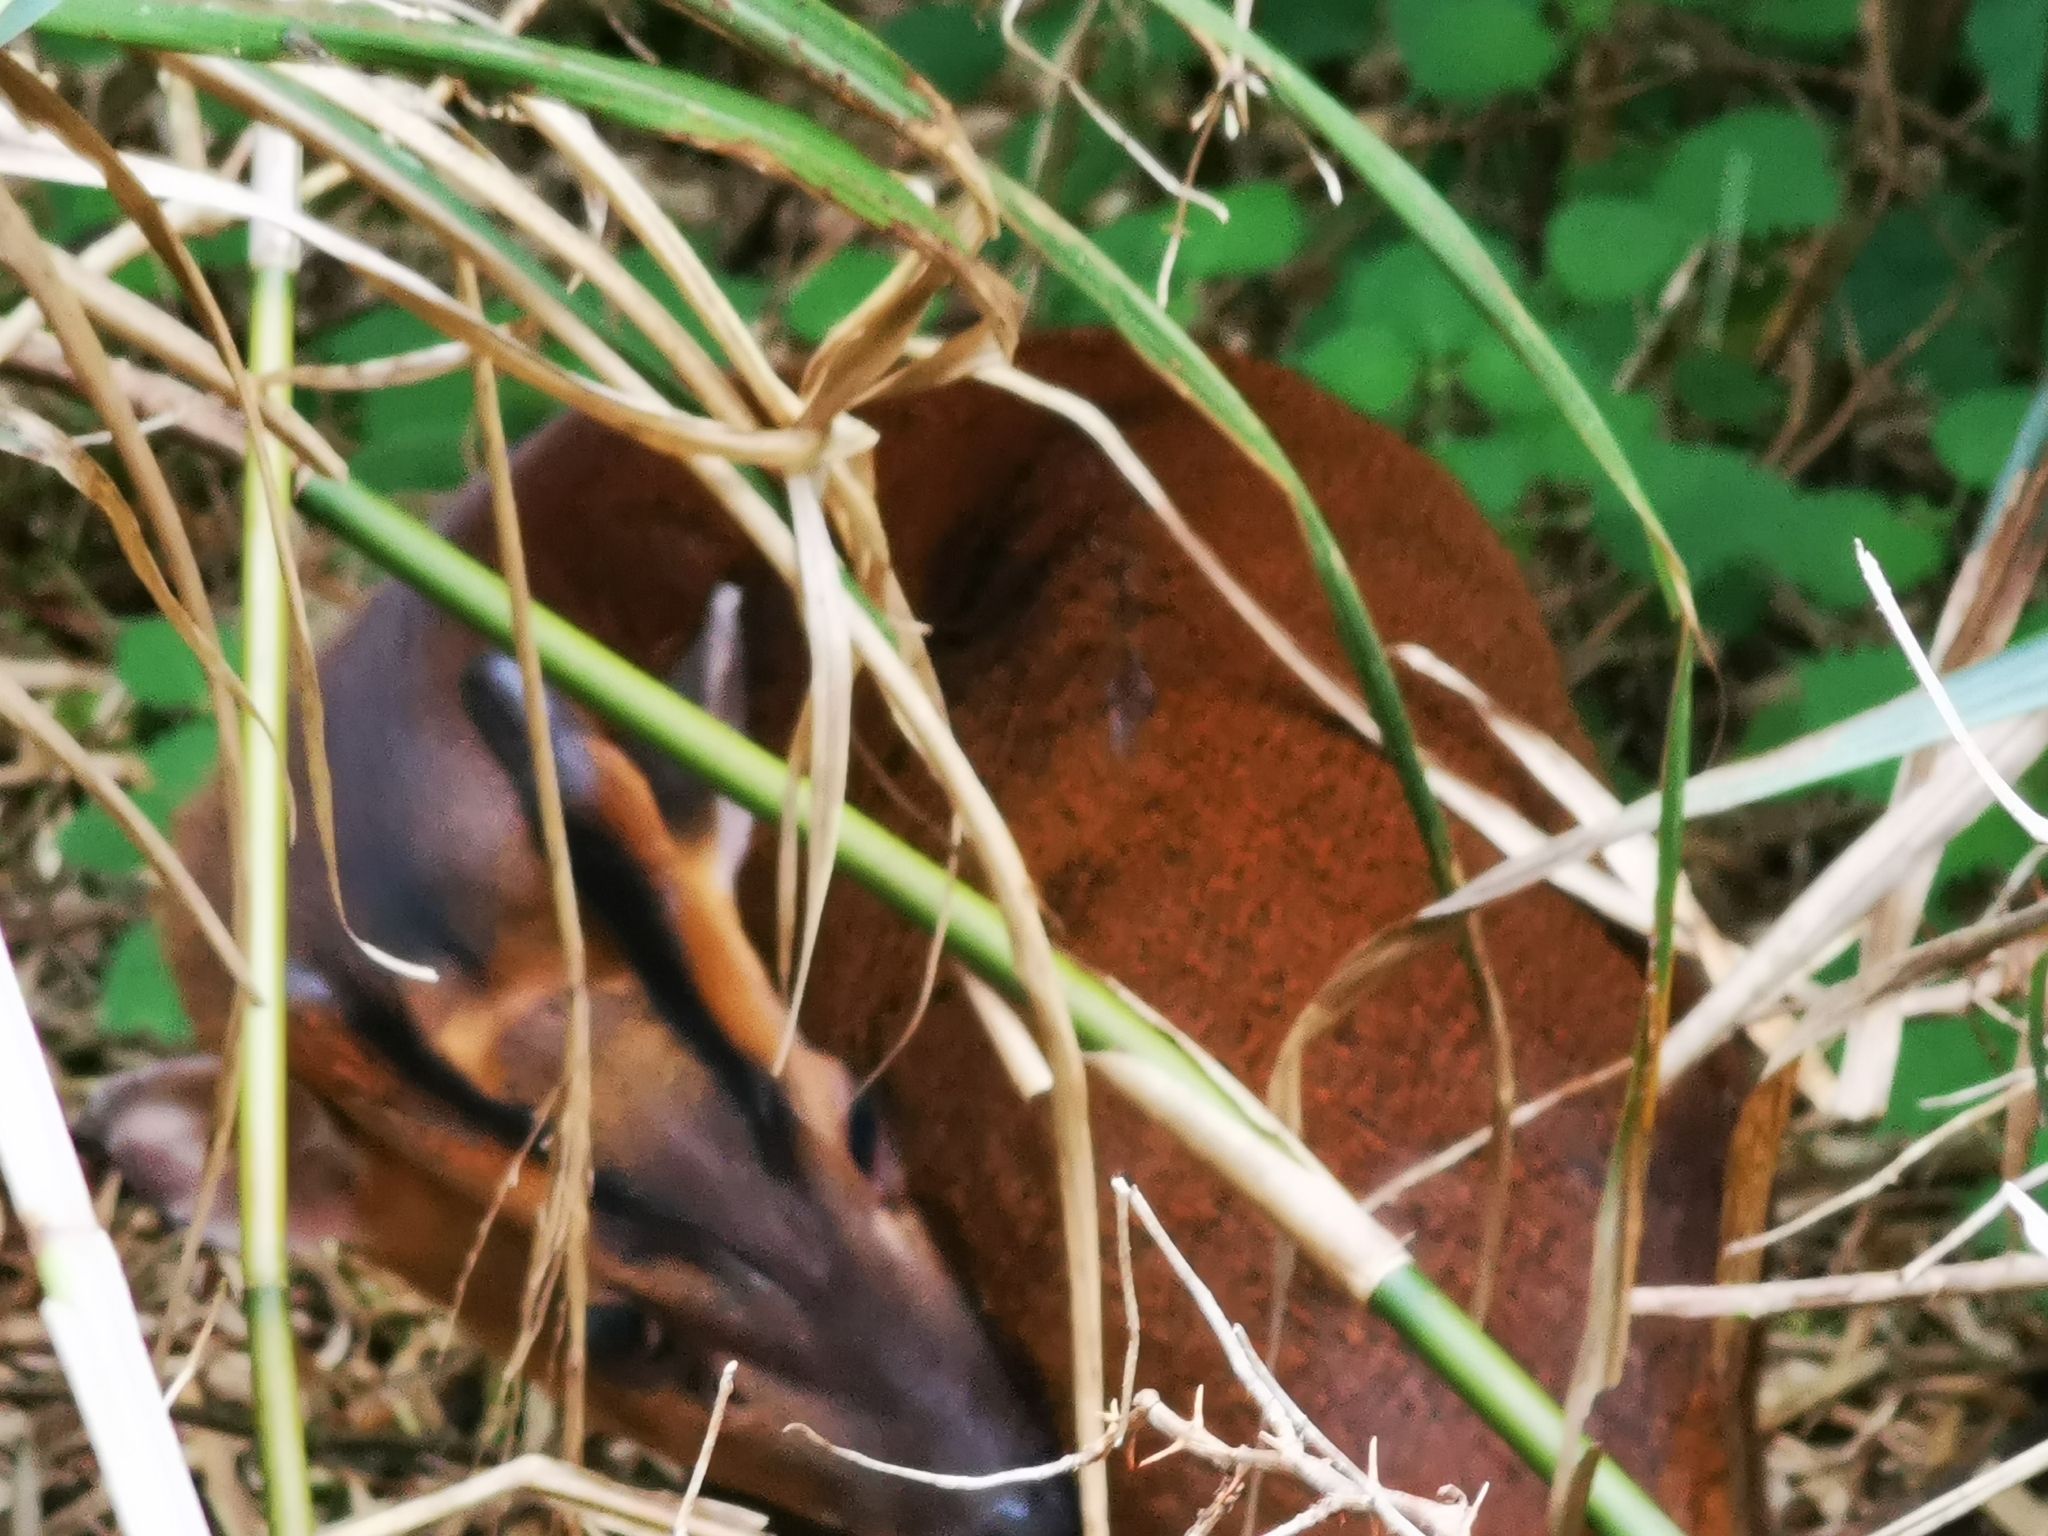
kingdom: Animalia
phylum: Chordata
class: Mammalia
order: Artiodactyla
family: Cervidae
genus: Muntiacus
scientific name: Muntiacus reevesi
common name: Reeves' muntjac
